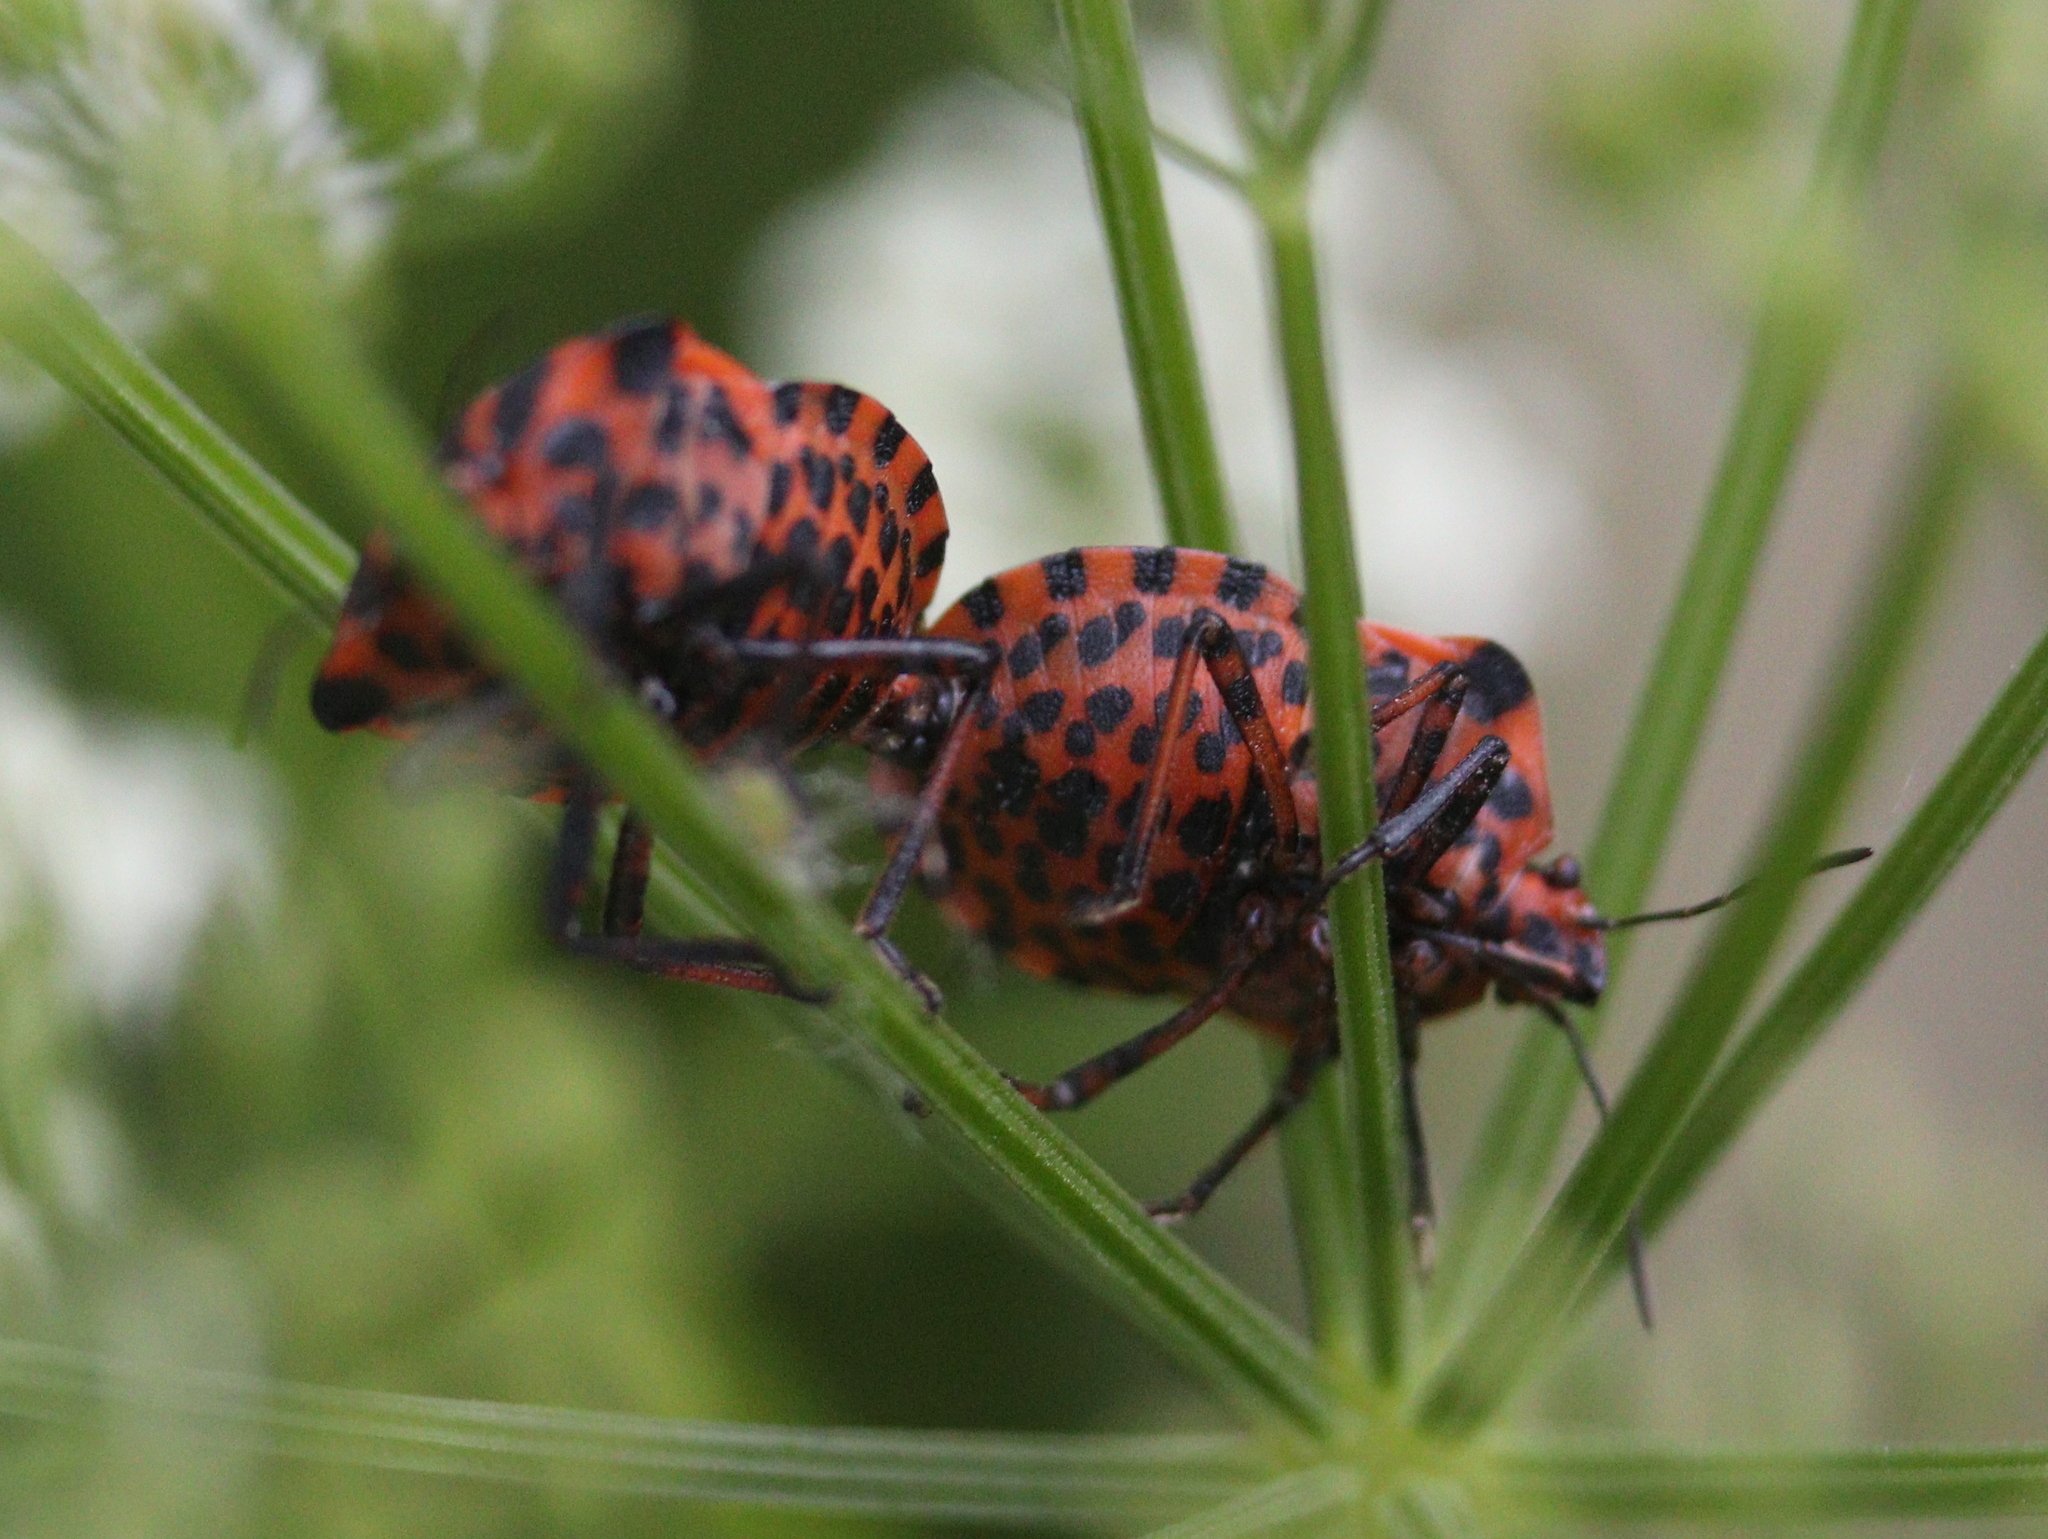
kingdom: Animalia
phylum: Arthropoda
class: Insecta
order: Hemiptera
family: Pentatomidae
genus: Graphosoma
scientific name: Graphosoma italicum
